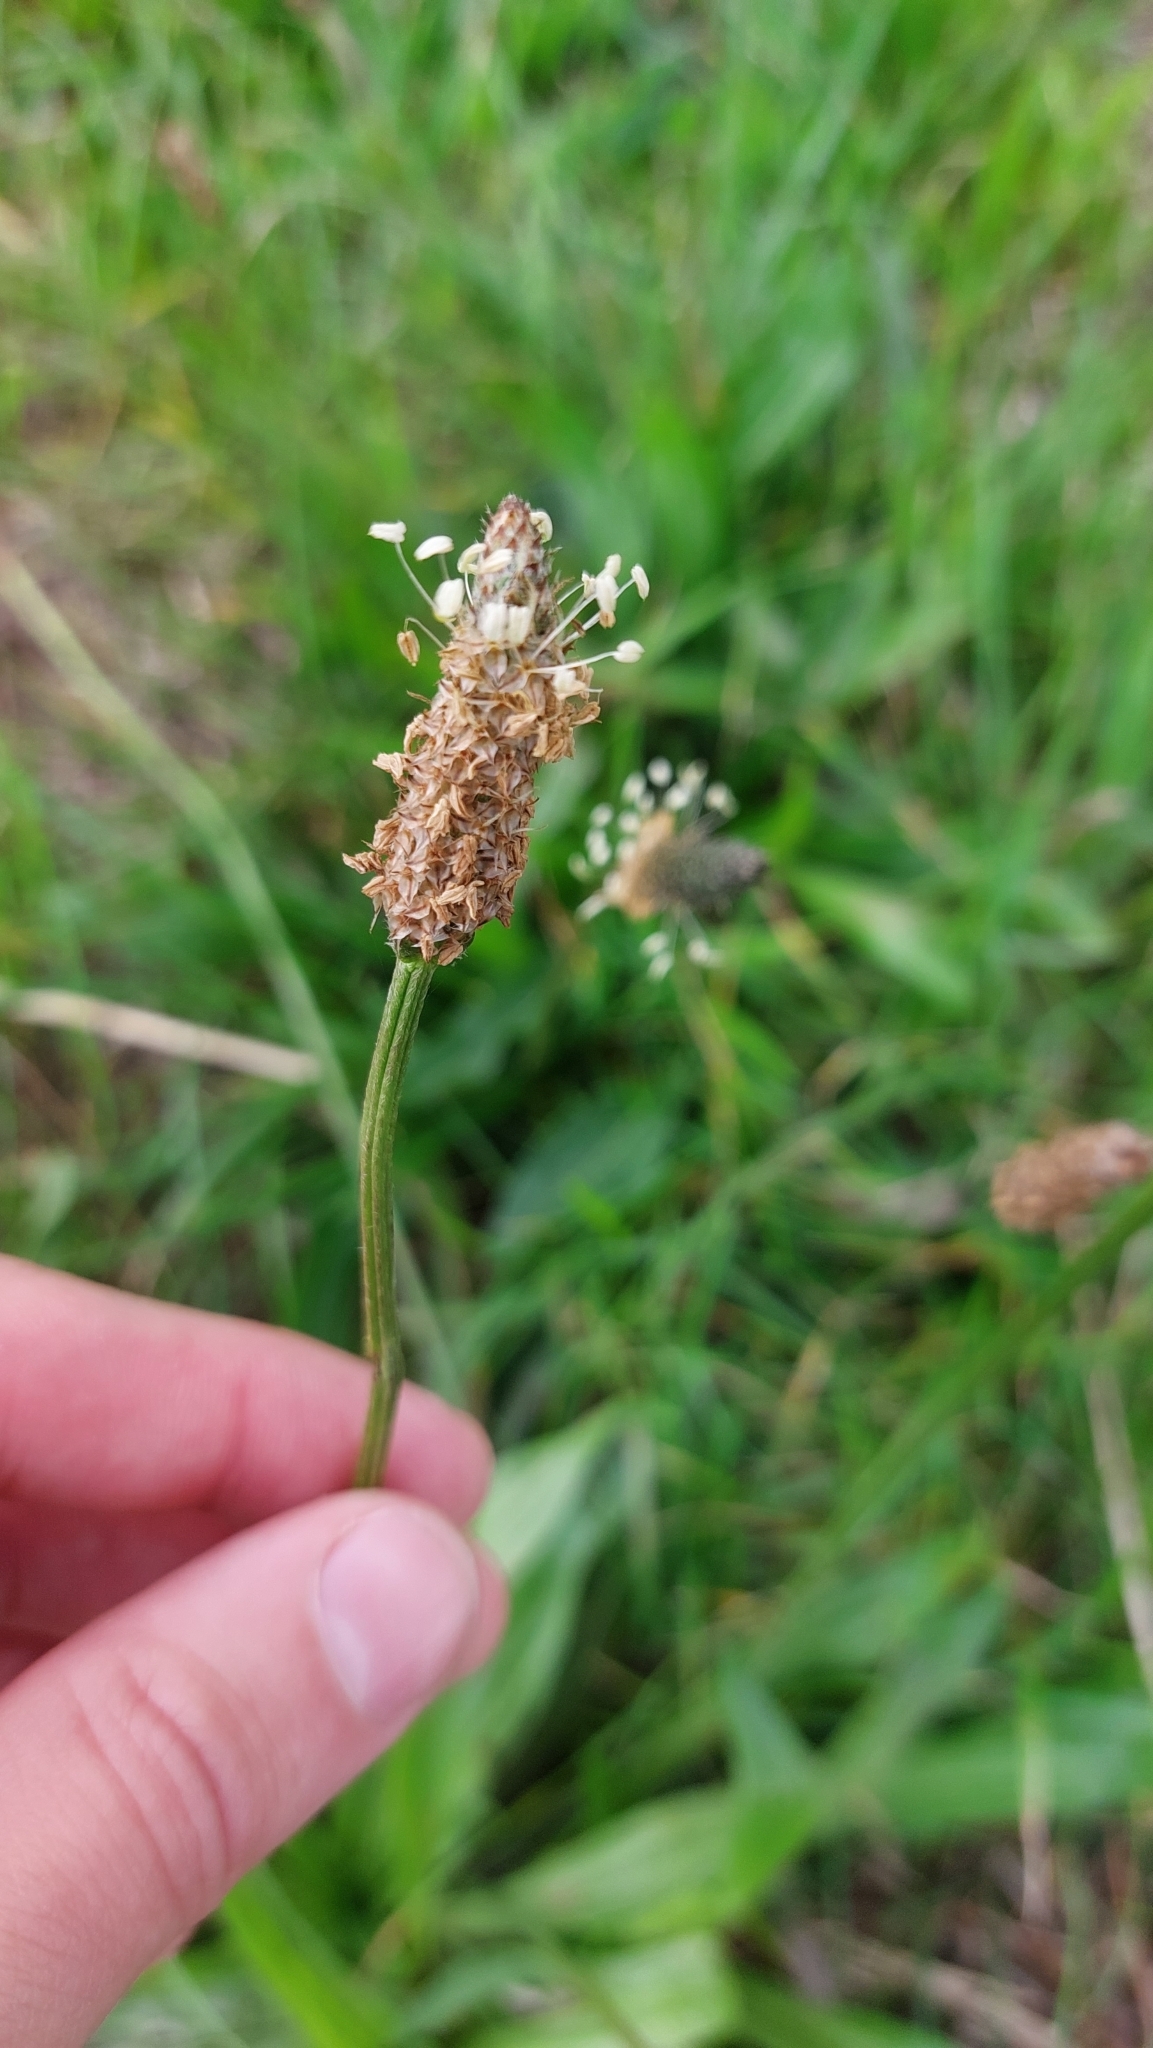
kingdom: Plantae
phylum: Tracheophyta
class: Magnoliopsida
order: Lamiales
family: Plantaginaceae
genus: Plantago
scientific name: Plantago lanceolata
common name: Ribwort plantain
